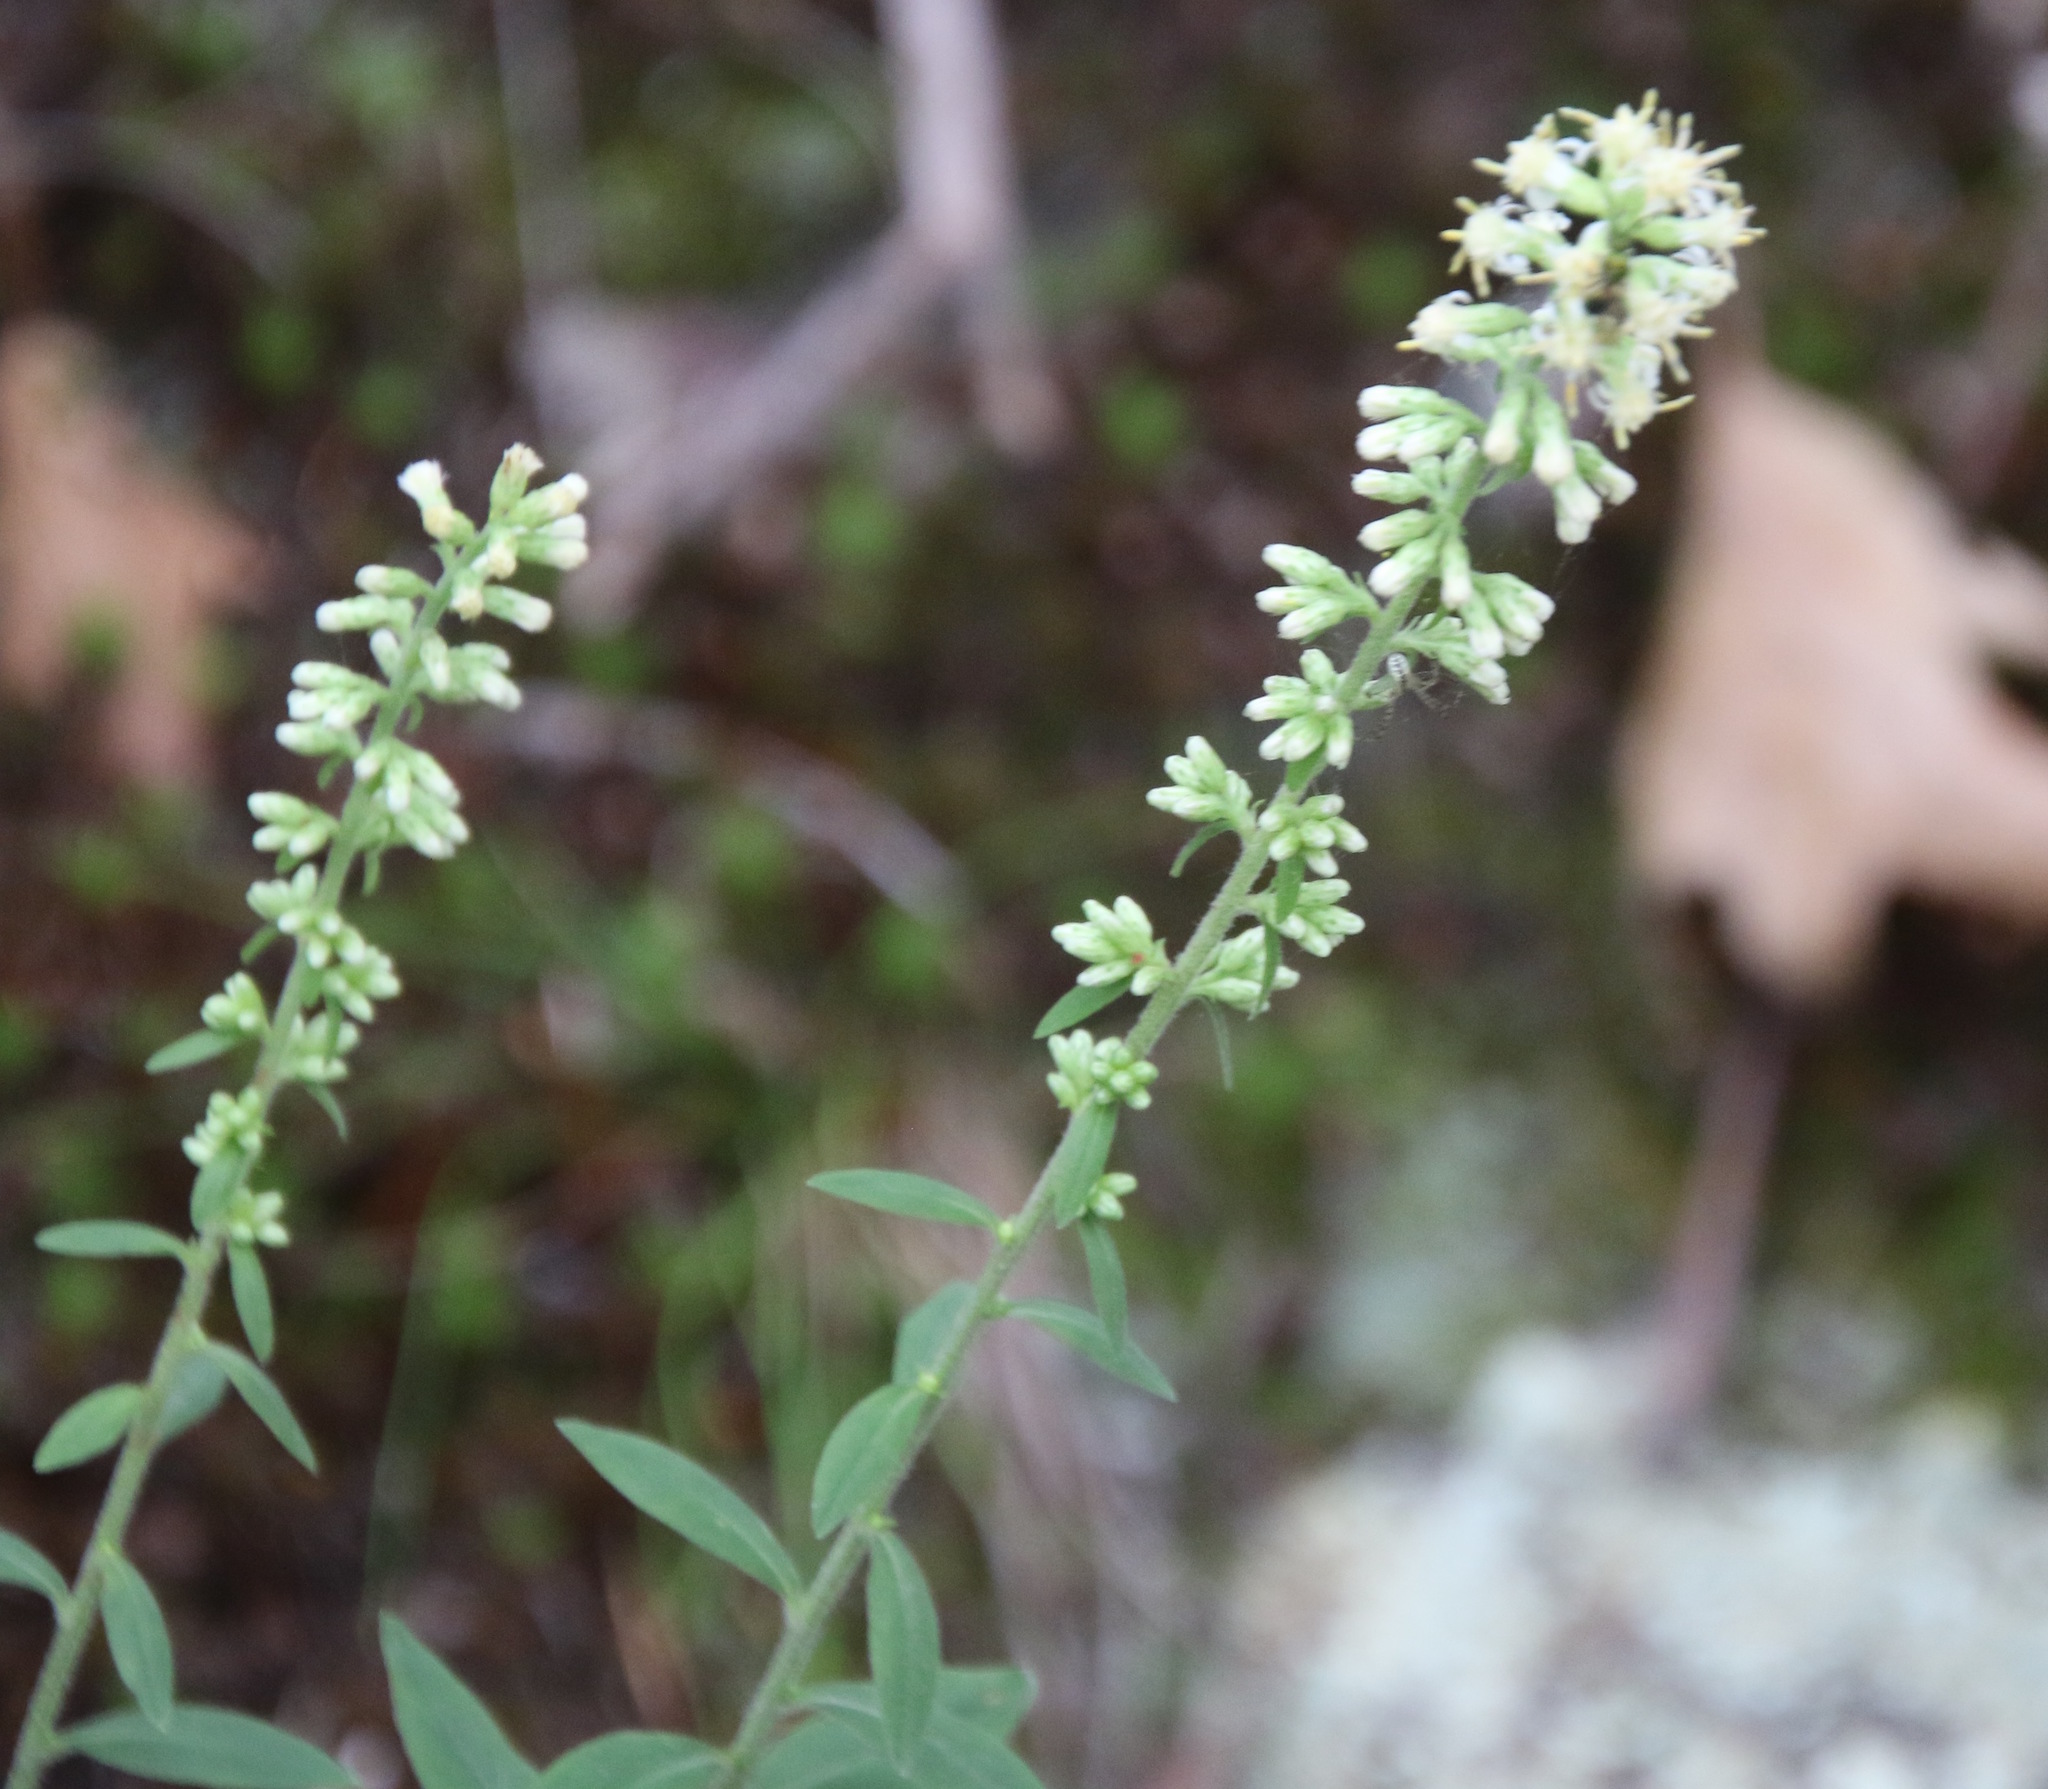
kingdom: Plantae
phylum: Tracheophyta
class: Magnoliopsida
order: Asterales
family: Asteraceae
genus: Solidago
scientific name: Solidago bicolor
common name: Silverrod
